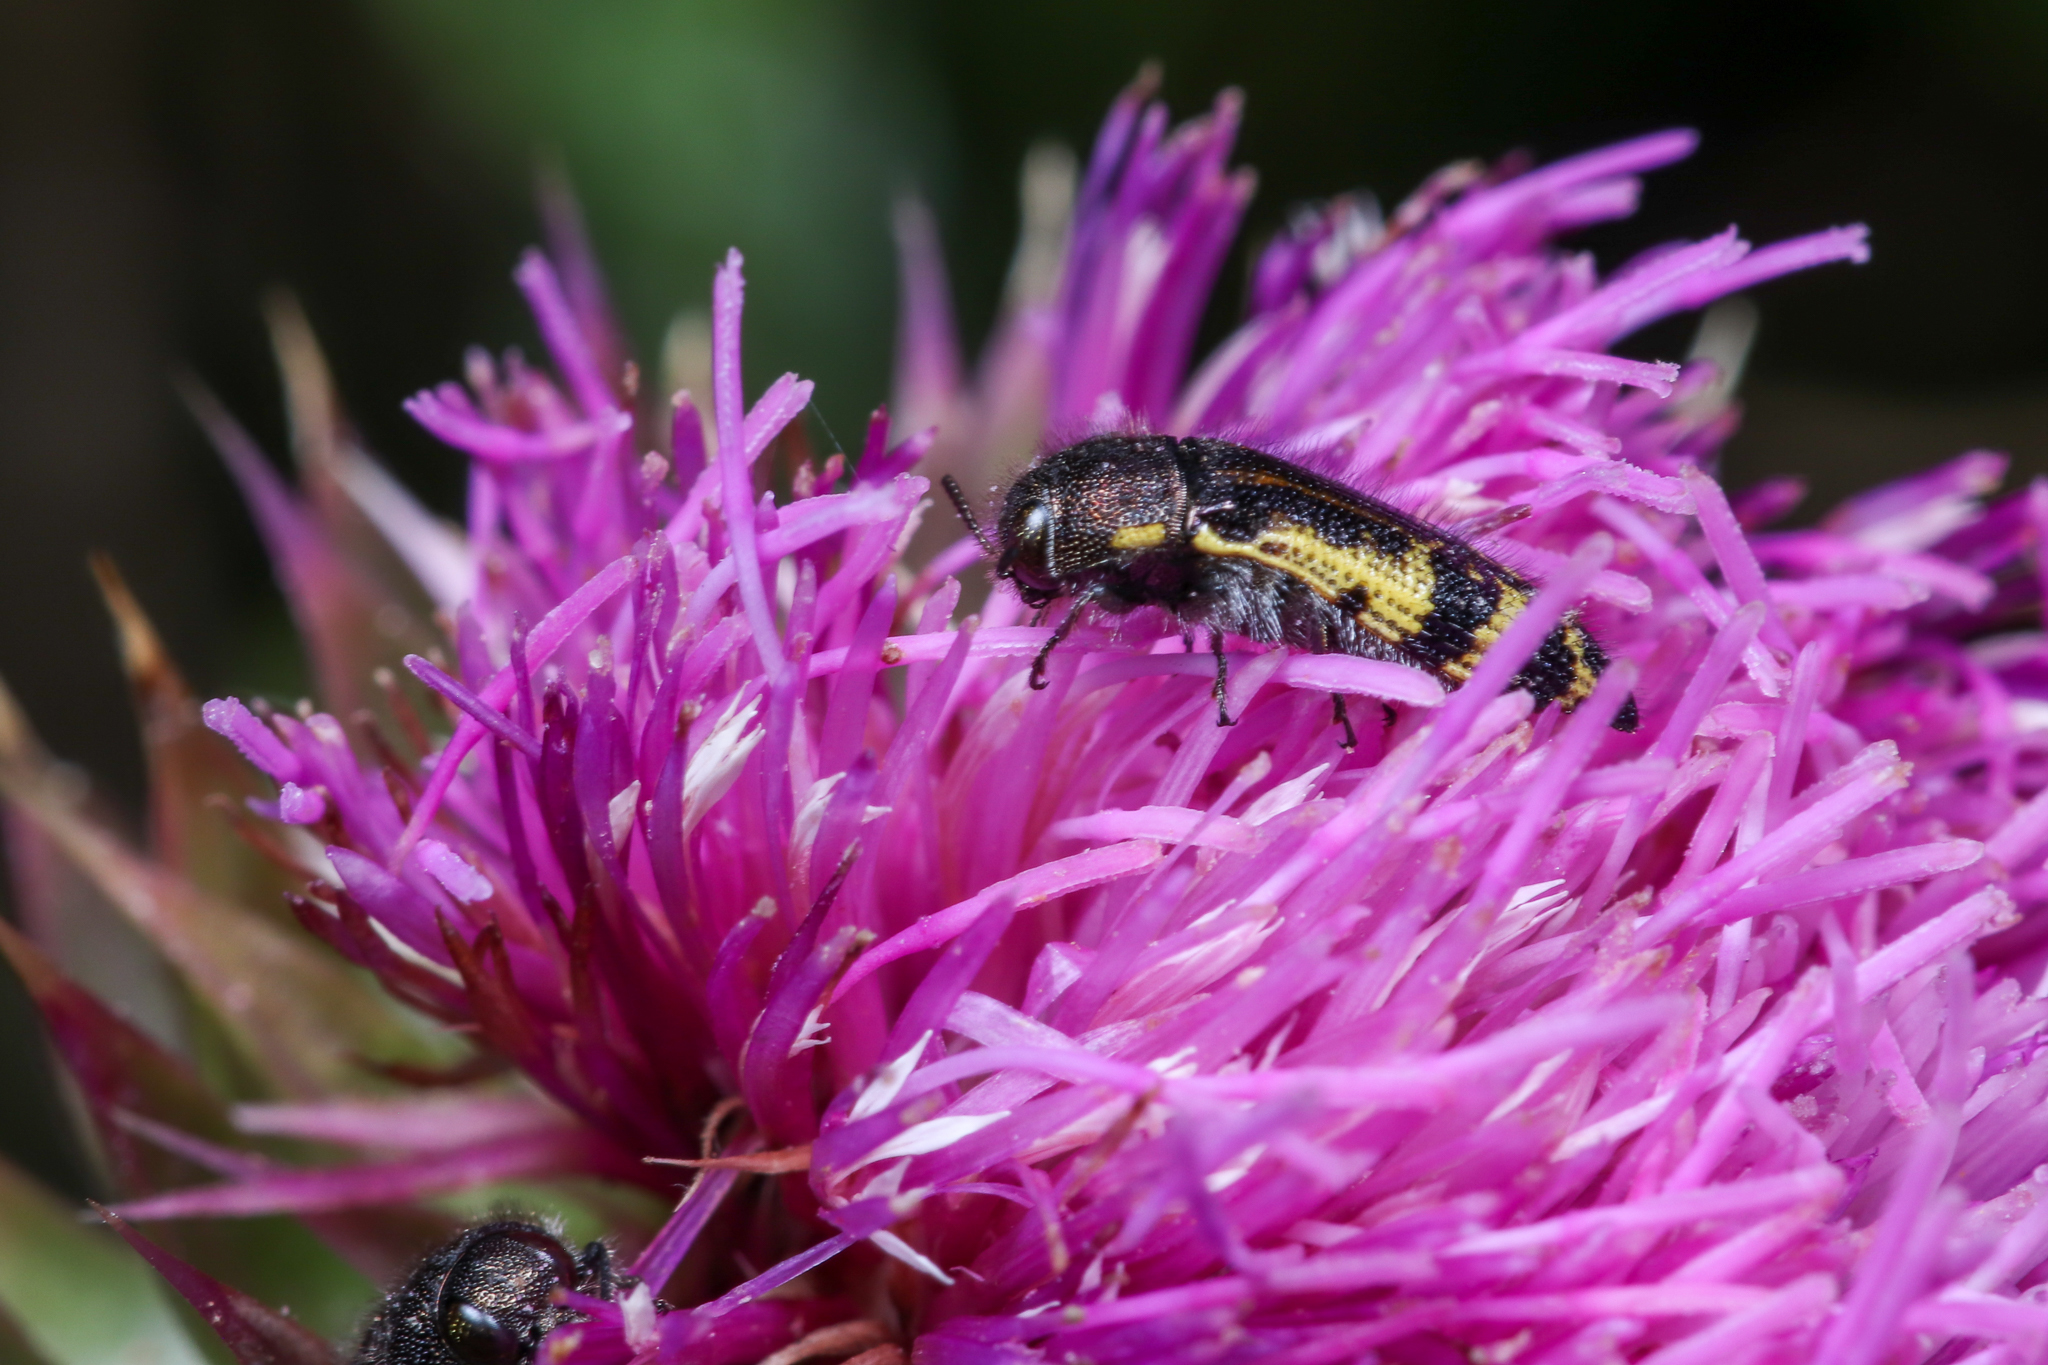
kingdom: Animalia
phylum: Arthropoda
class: Insecta
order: Coleoptera
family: Buprestidae
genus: Acmaeodera
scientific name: Acmaeodera pulchella
